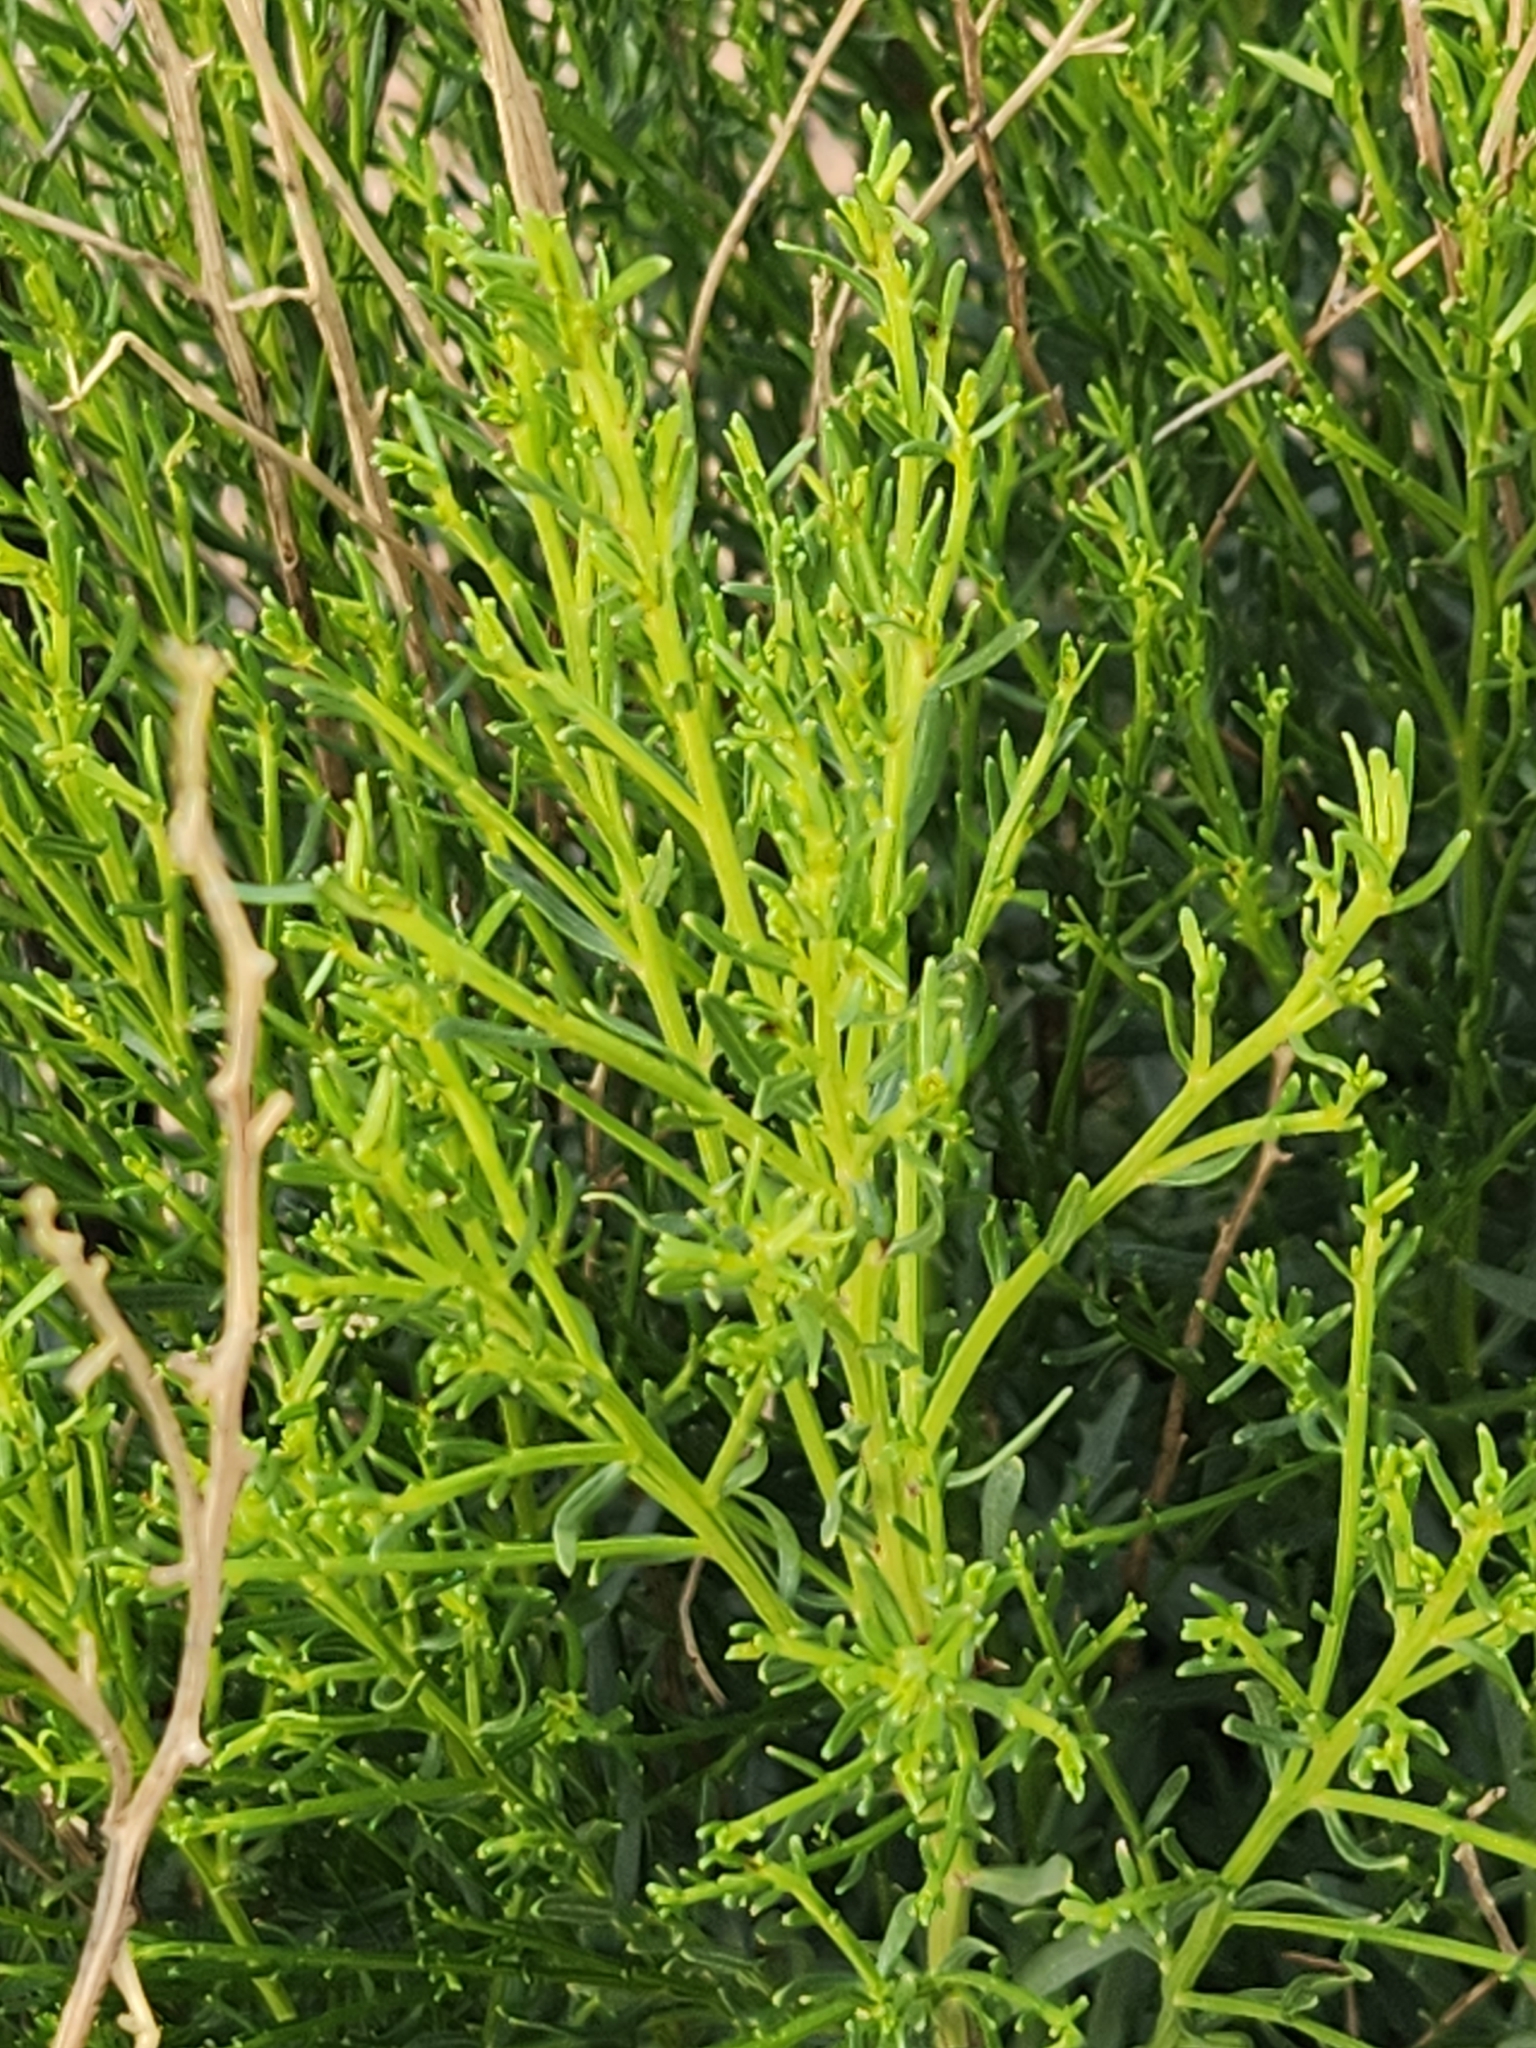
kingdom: Plantae
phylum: Tracheophyta
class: Magnoliopsida
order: Asterales
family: Asteraceae
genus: Baccharis
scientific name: Baccharis sarothroides
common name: Desert-broom
